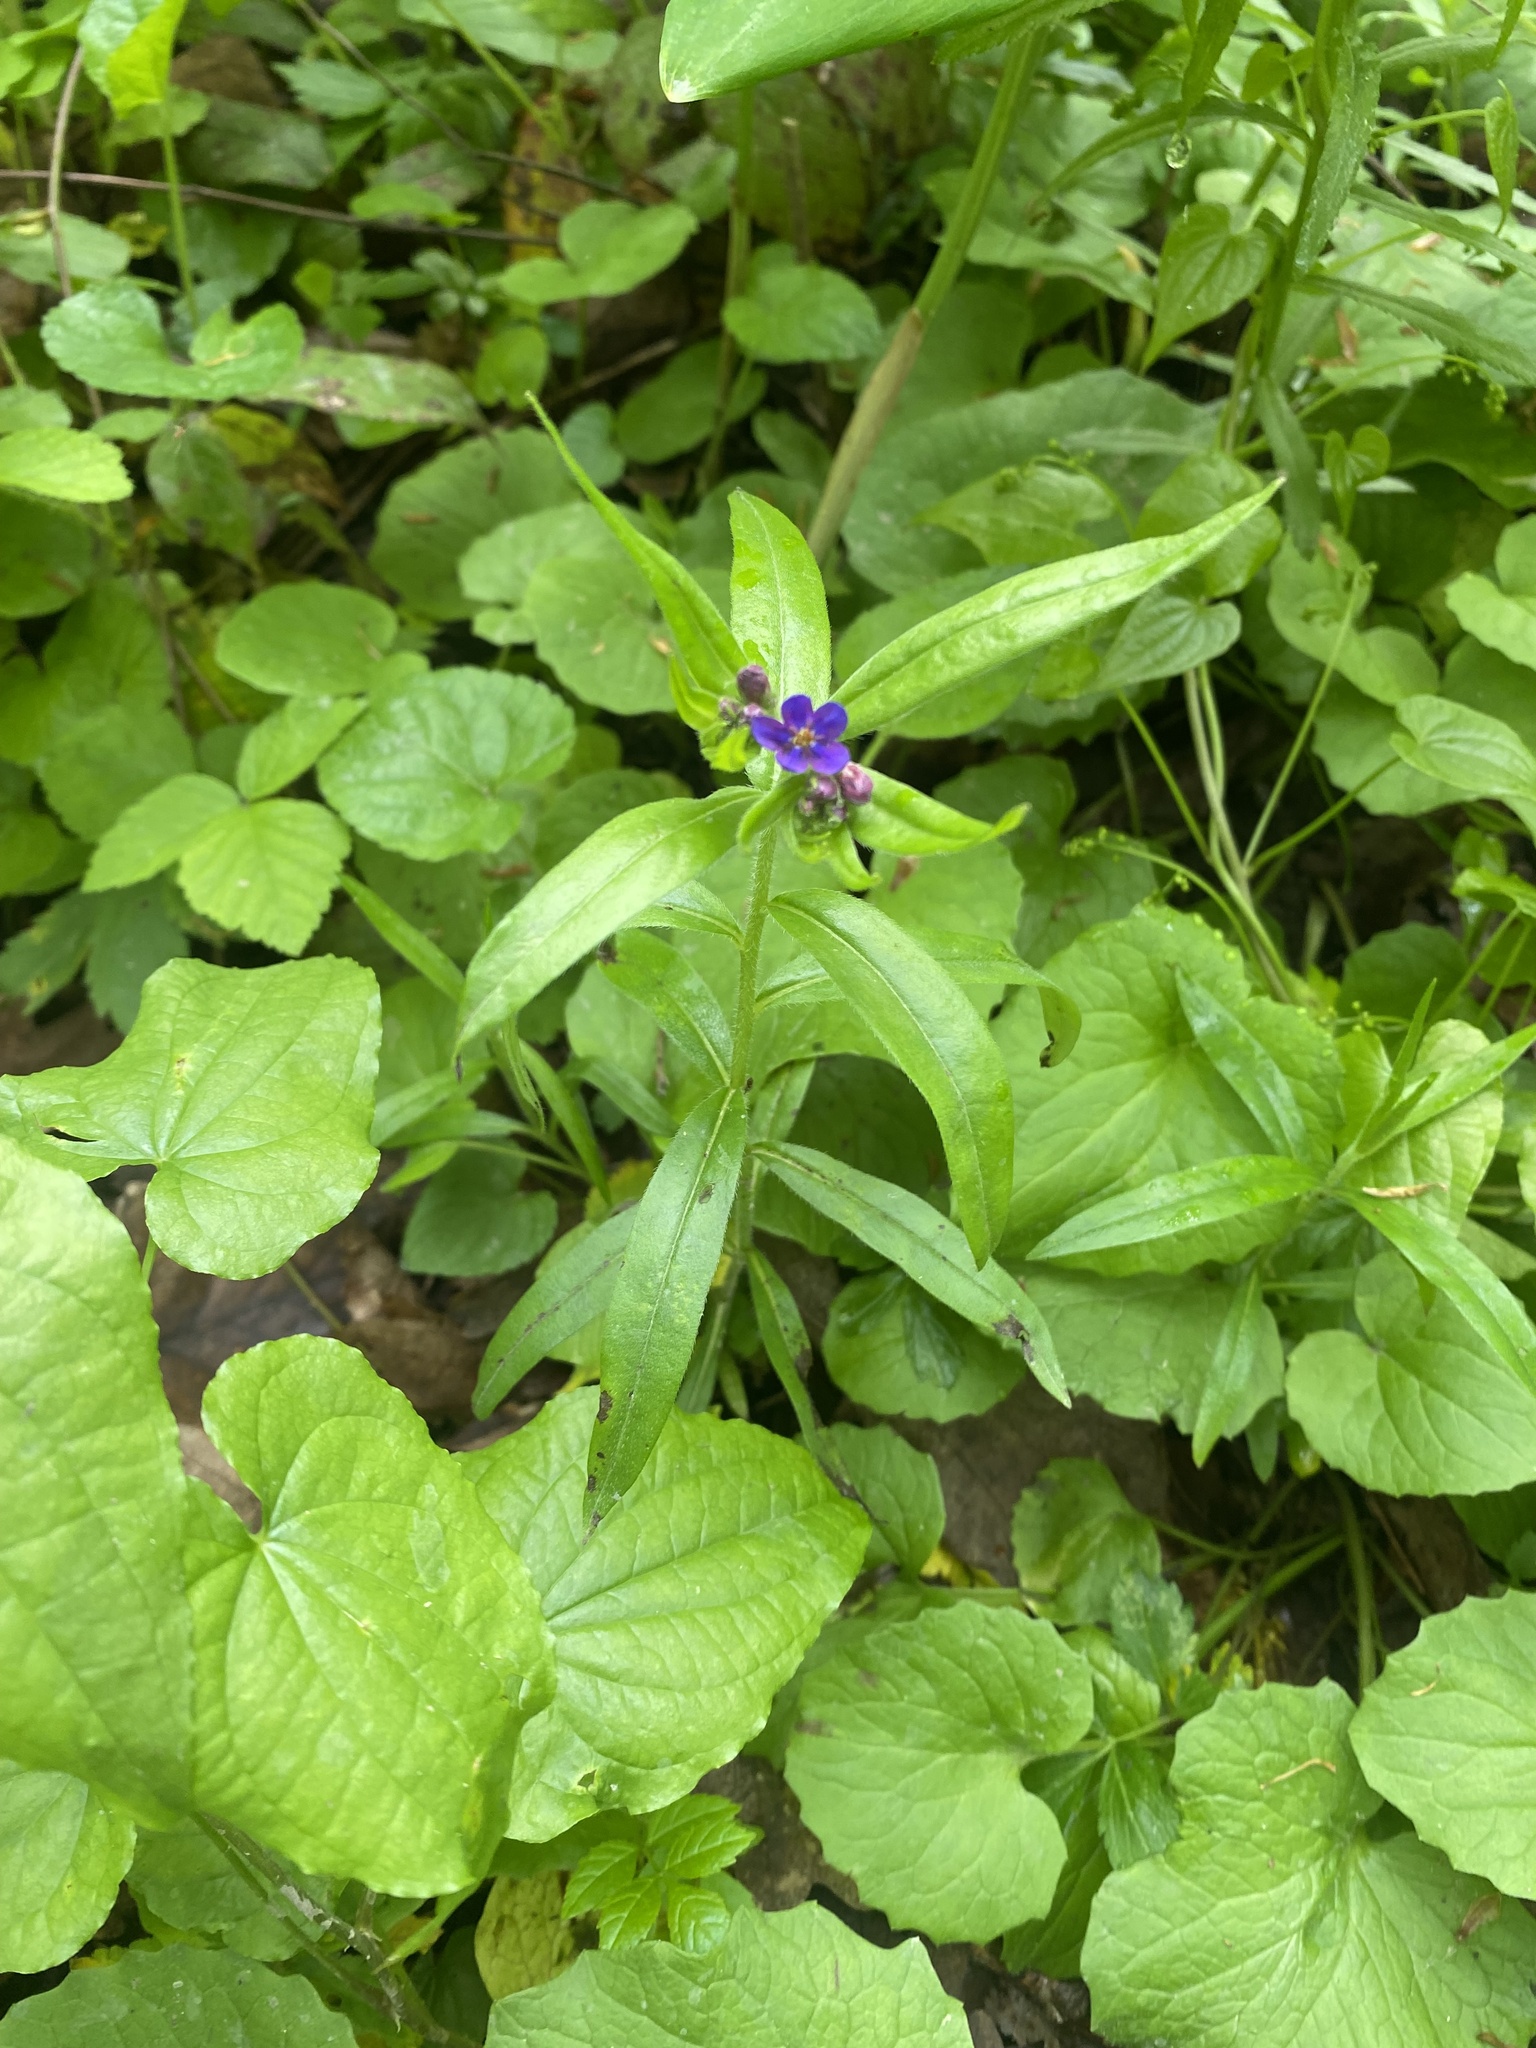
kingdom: Plantae
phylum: Tracheophyta
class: Magnoliopsida
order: Boraginales
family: Boraginaceae
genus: Aegonychon
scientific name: Aegonychon purpurocaeruleum
